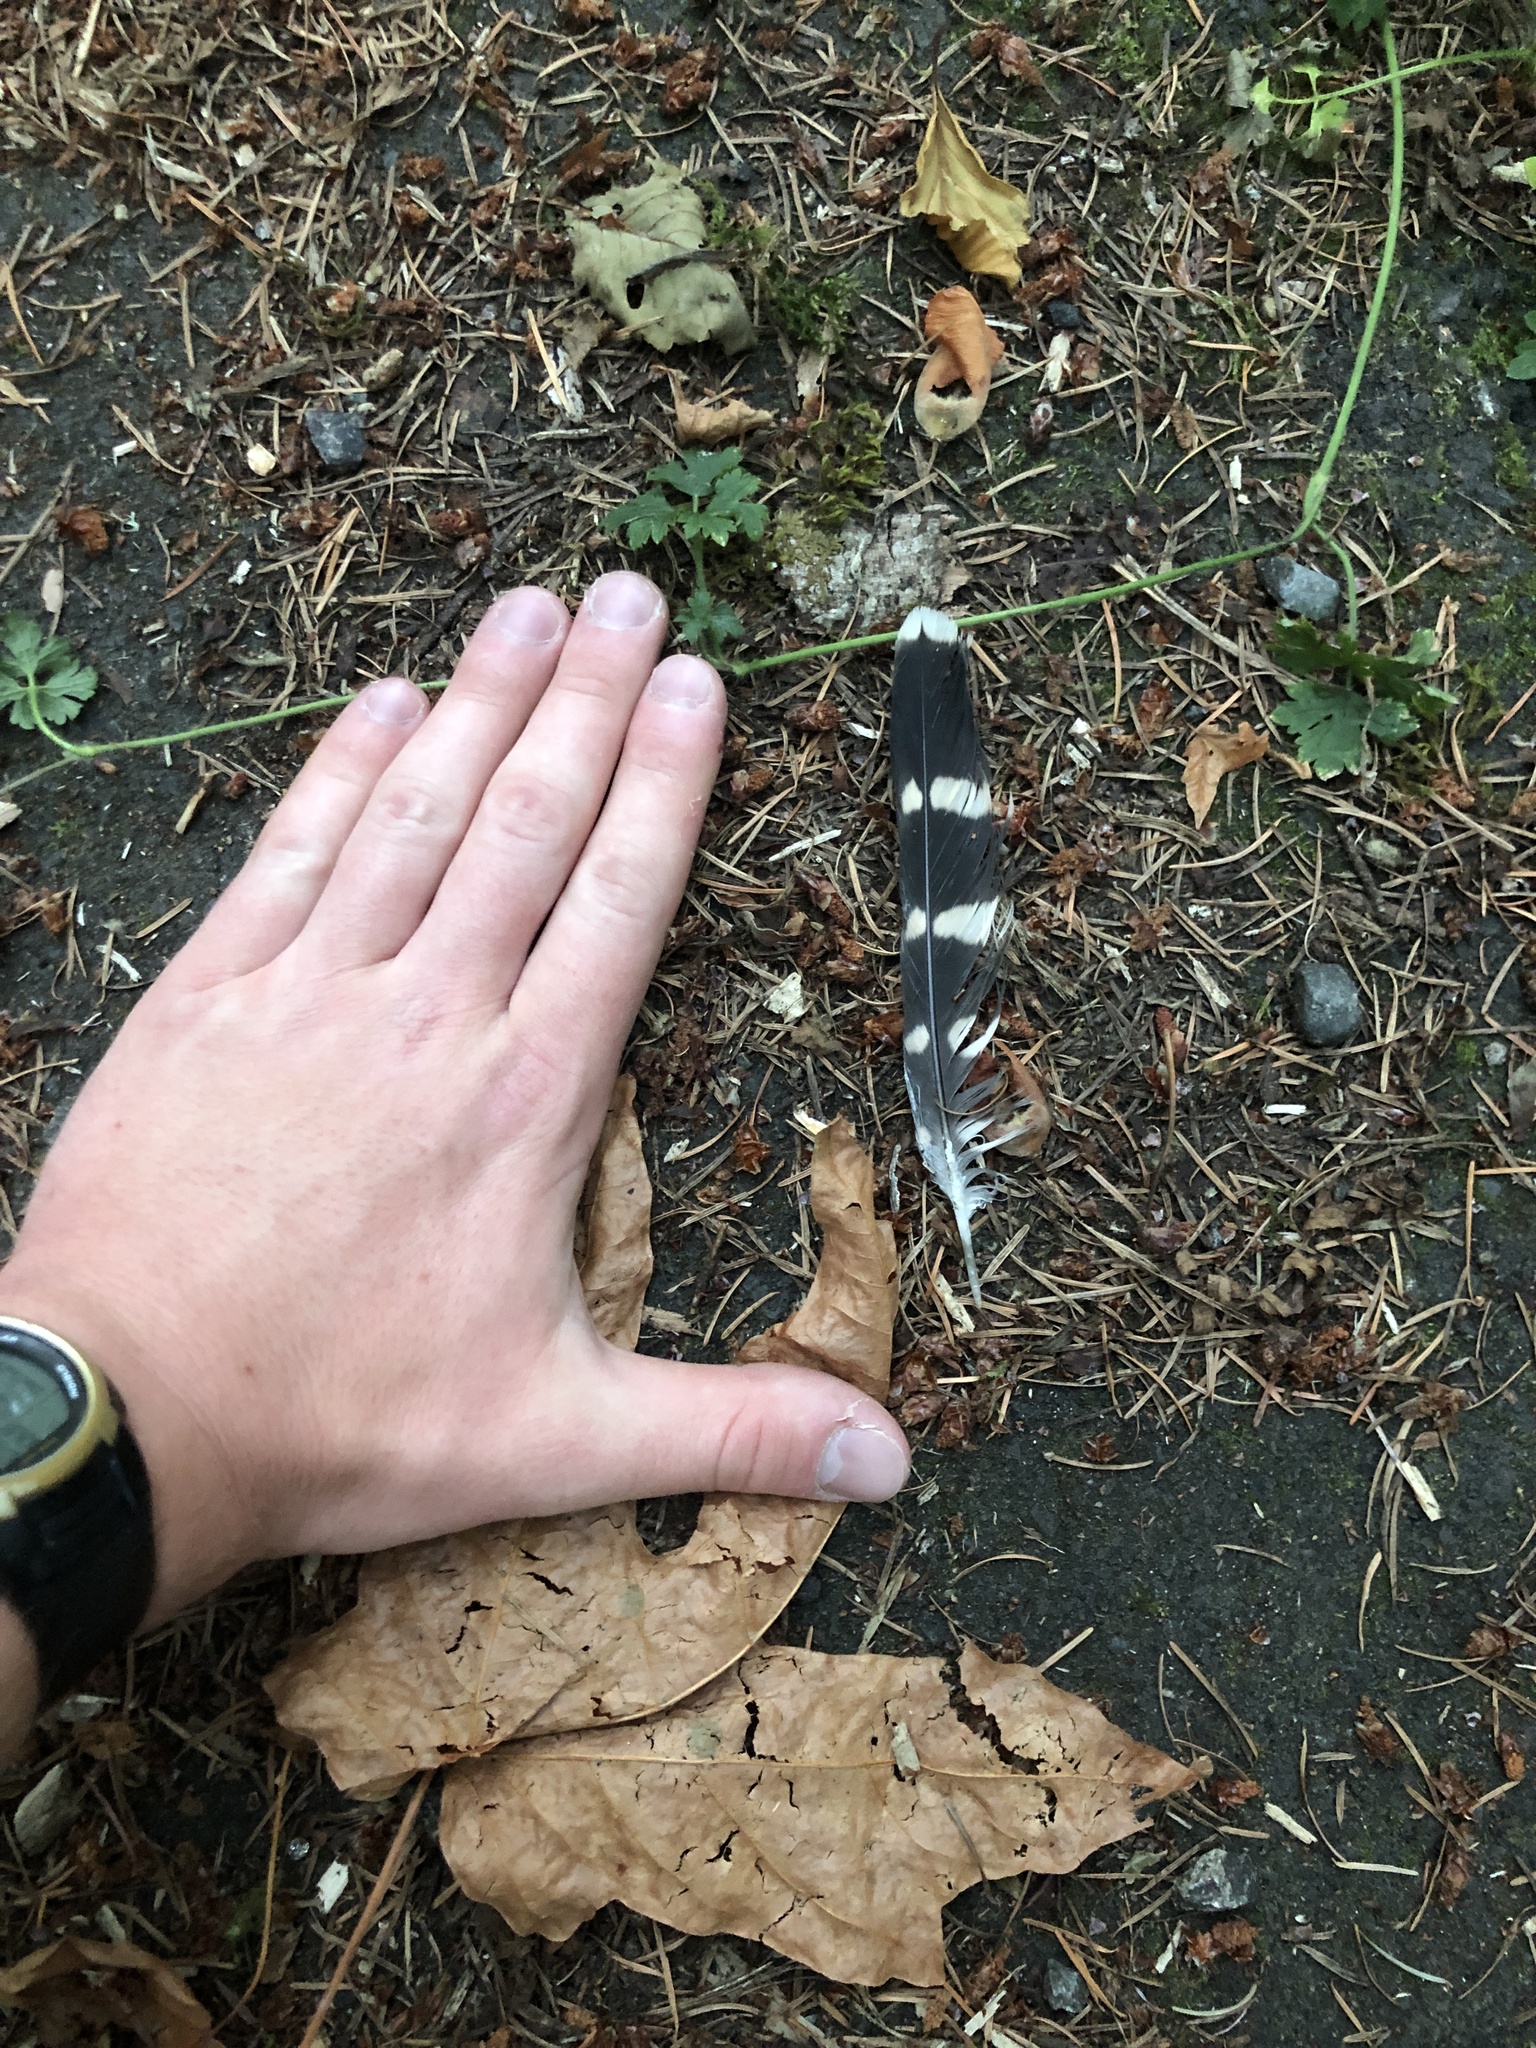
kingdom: Animalia
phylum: Chordata
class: Aves
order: Falconiformes
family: Falconidae
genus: Falco
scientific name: Falco columbarius
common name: Merlin
